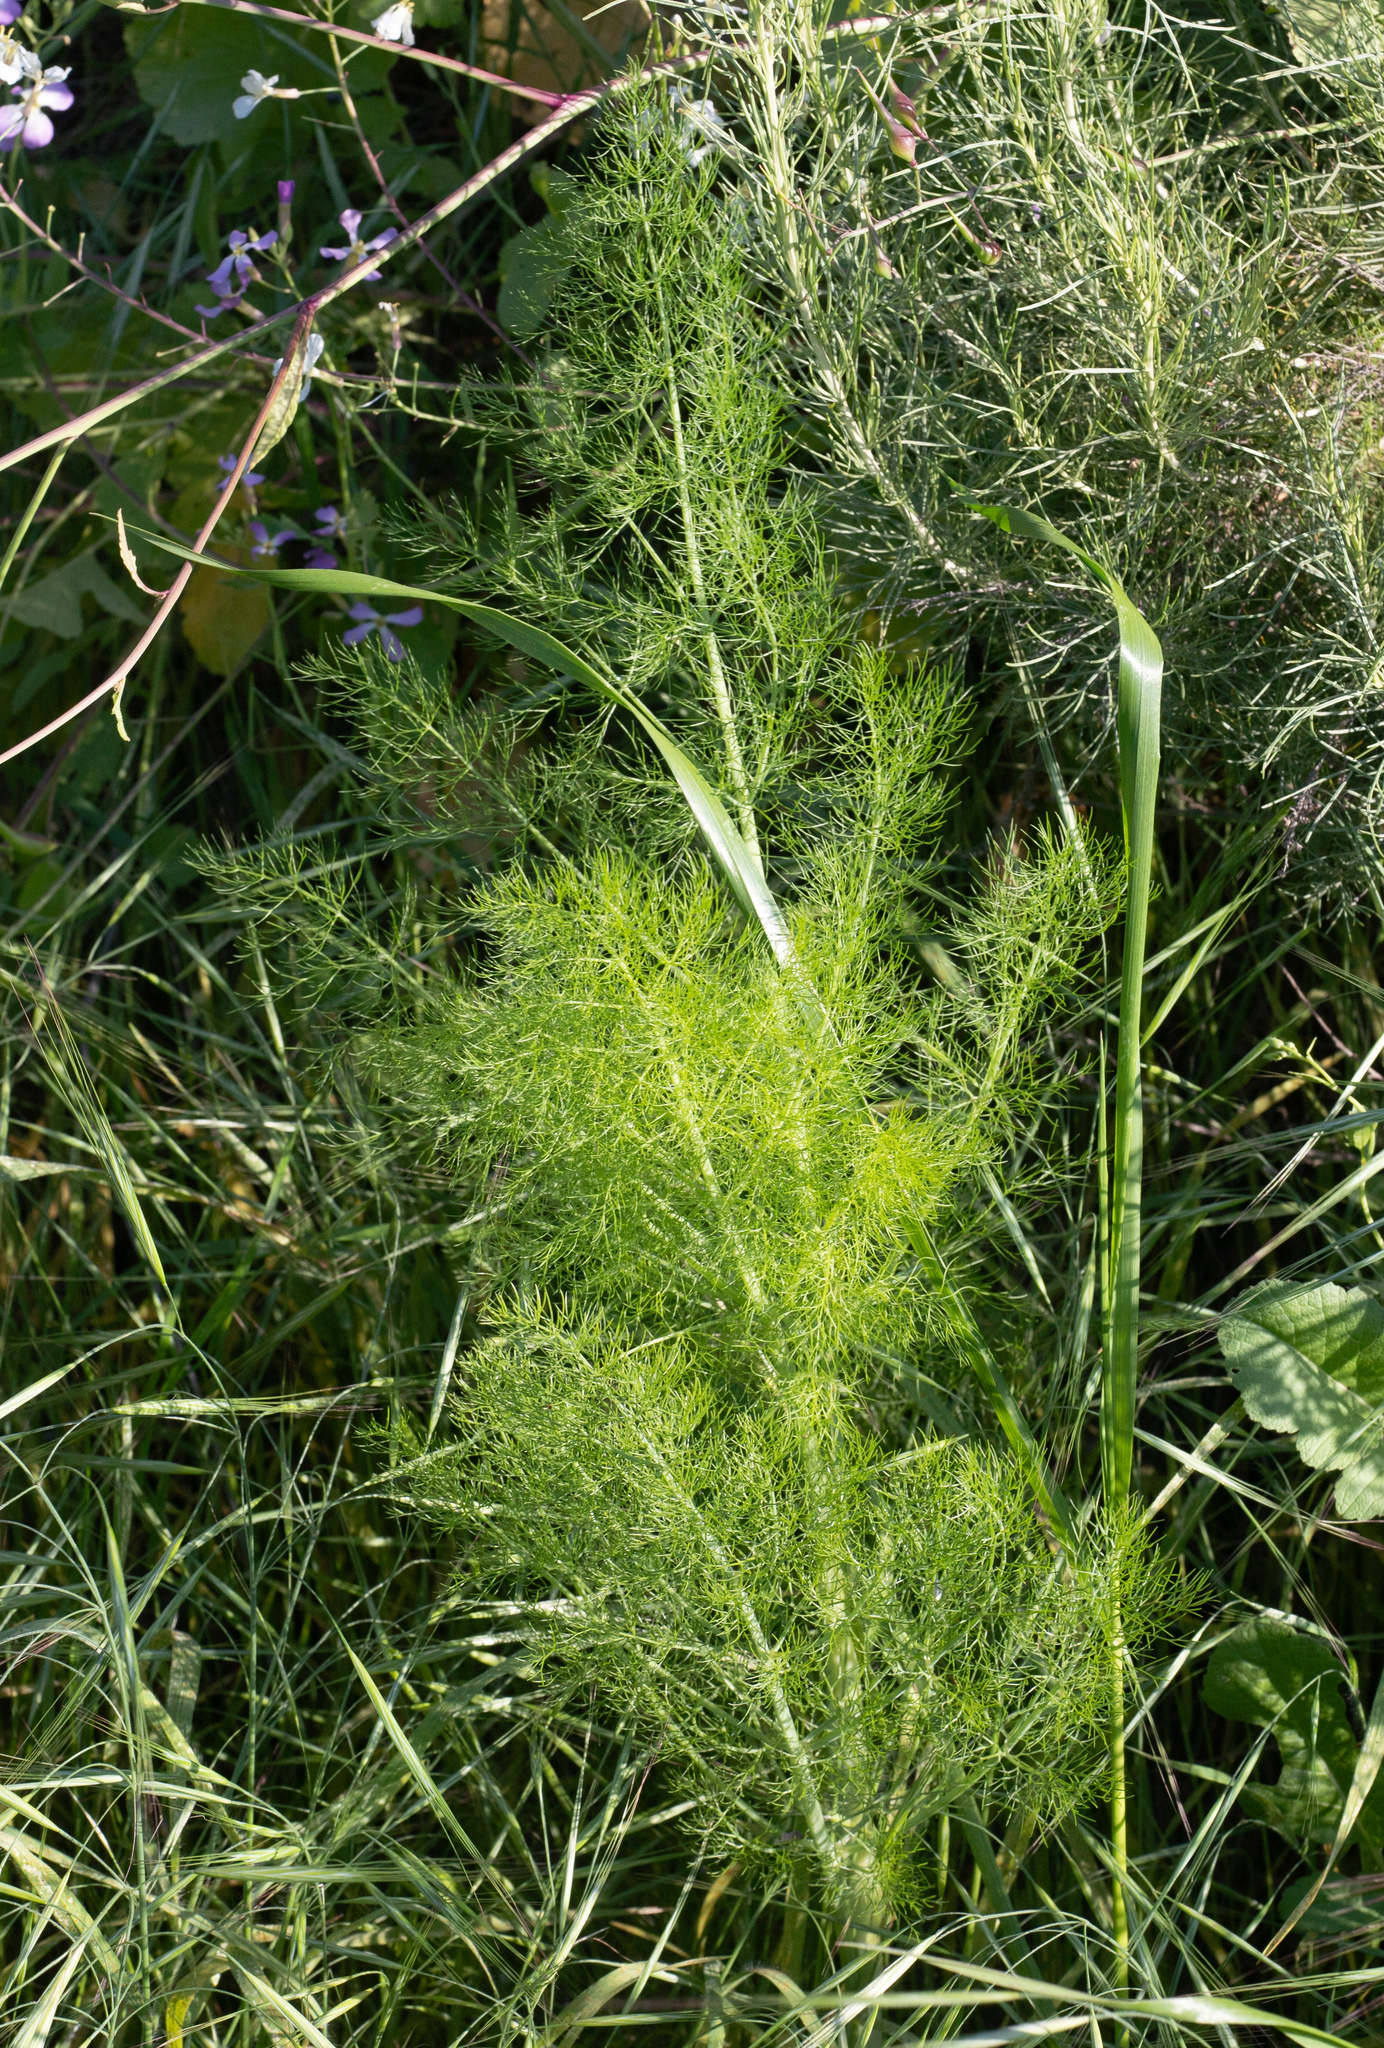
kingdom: Plantae
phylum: Tracheophyta
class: Magnoliopsida
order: Apiales
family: Apiaceae
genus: Foeniculum
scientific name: Foeniculum vulgare
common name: Fennel
